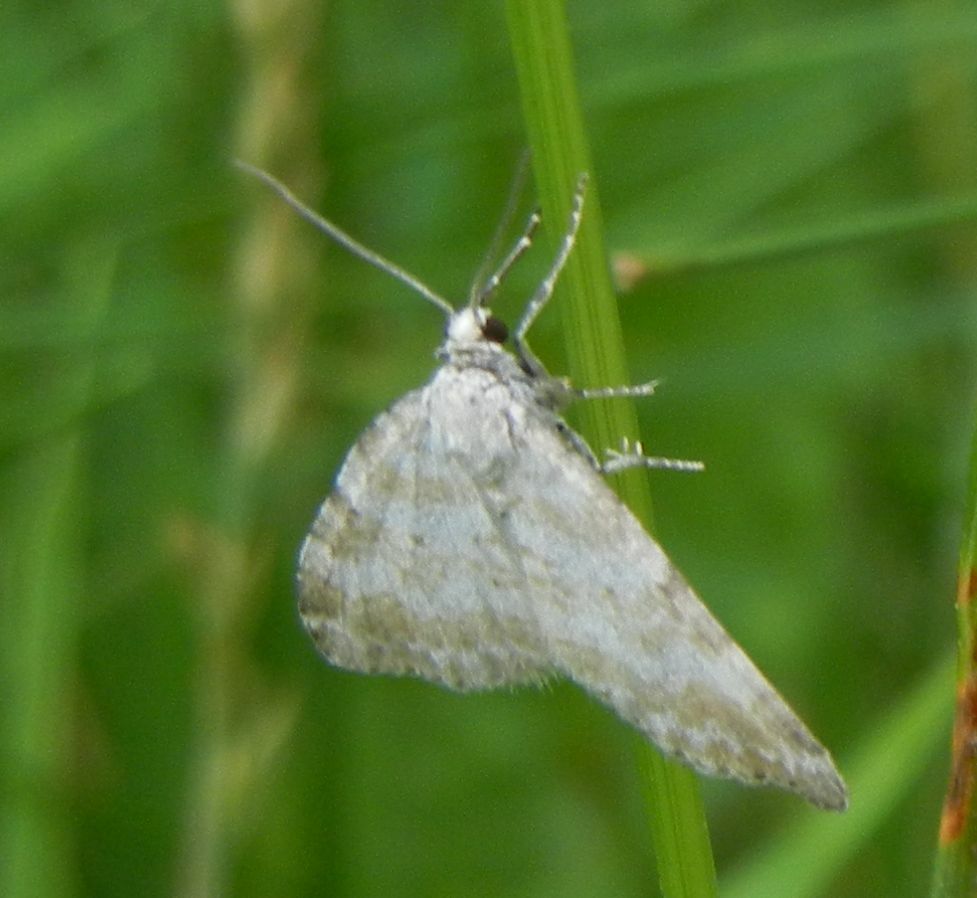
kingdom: Animalia
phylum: Arthropoda
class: Insecta
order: Lepidoptera
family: Geometridae
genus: Perizoma
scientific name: Perizoma albulata
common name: Grass rivulet
